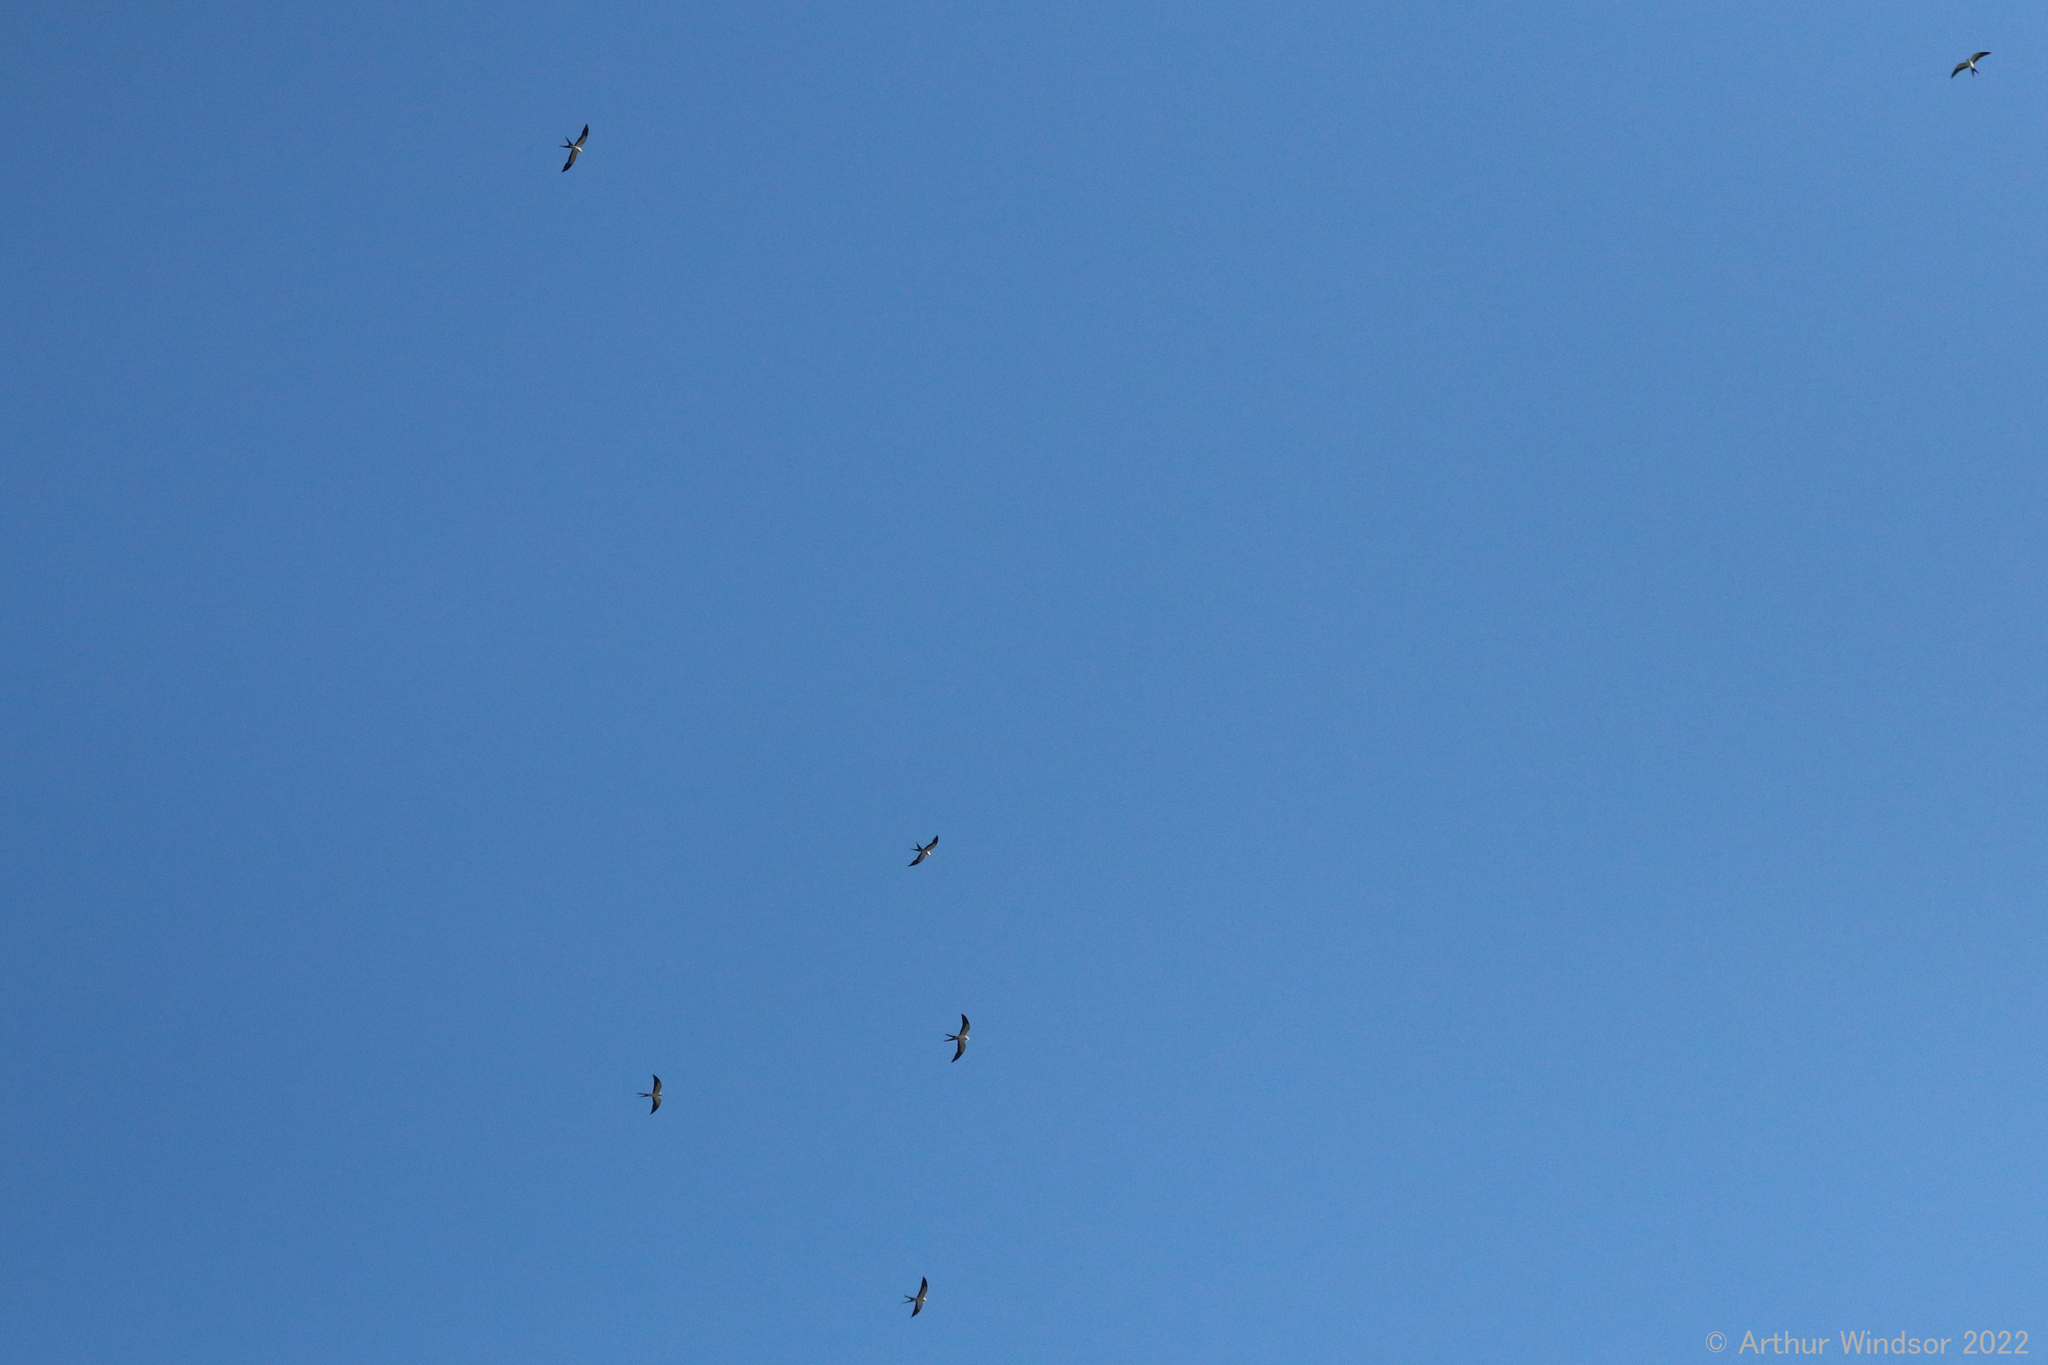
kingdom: Animalia
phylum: Chordata
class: Aves
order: Accipitriformes
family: Accipitridae
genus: Elanoides
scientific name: Elanoides forficatus
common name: Swallow-tailed kite
